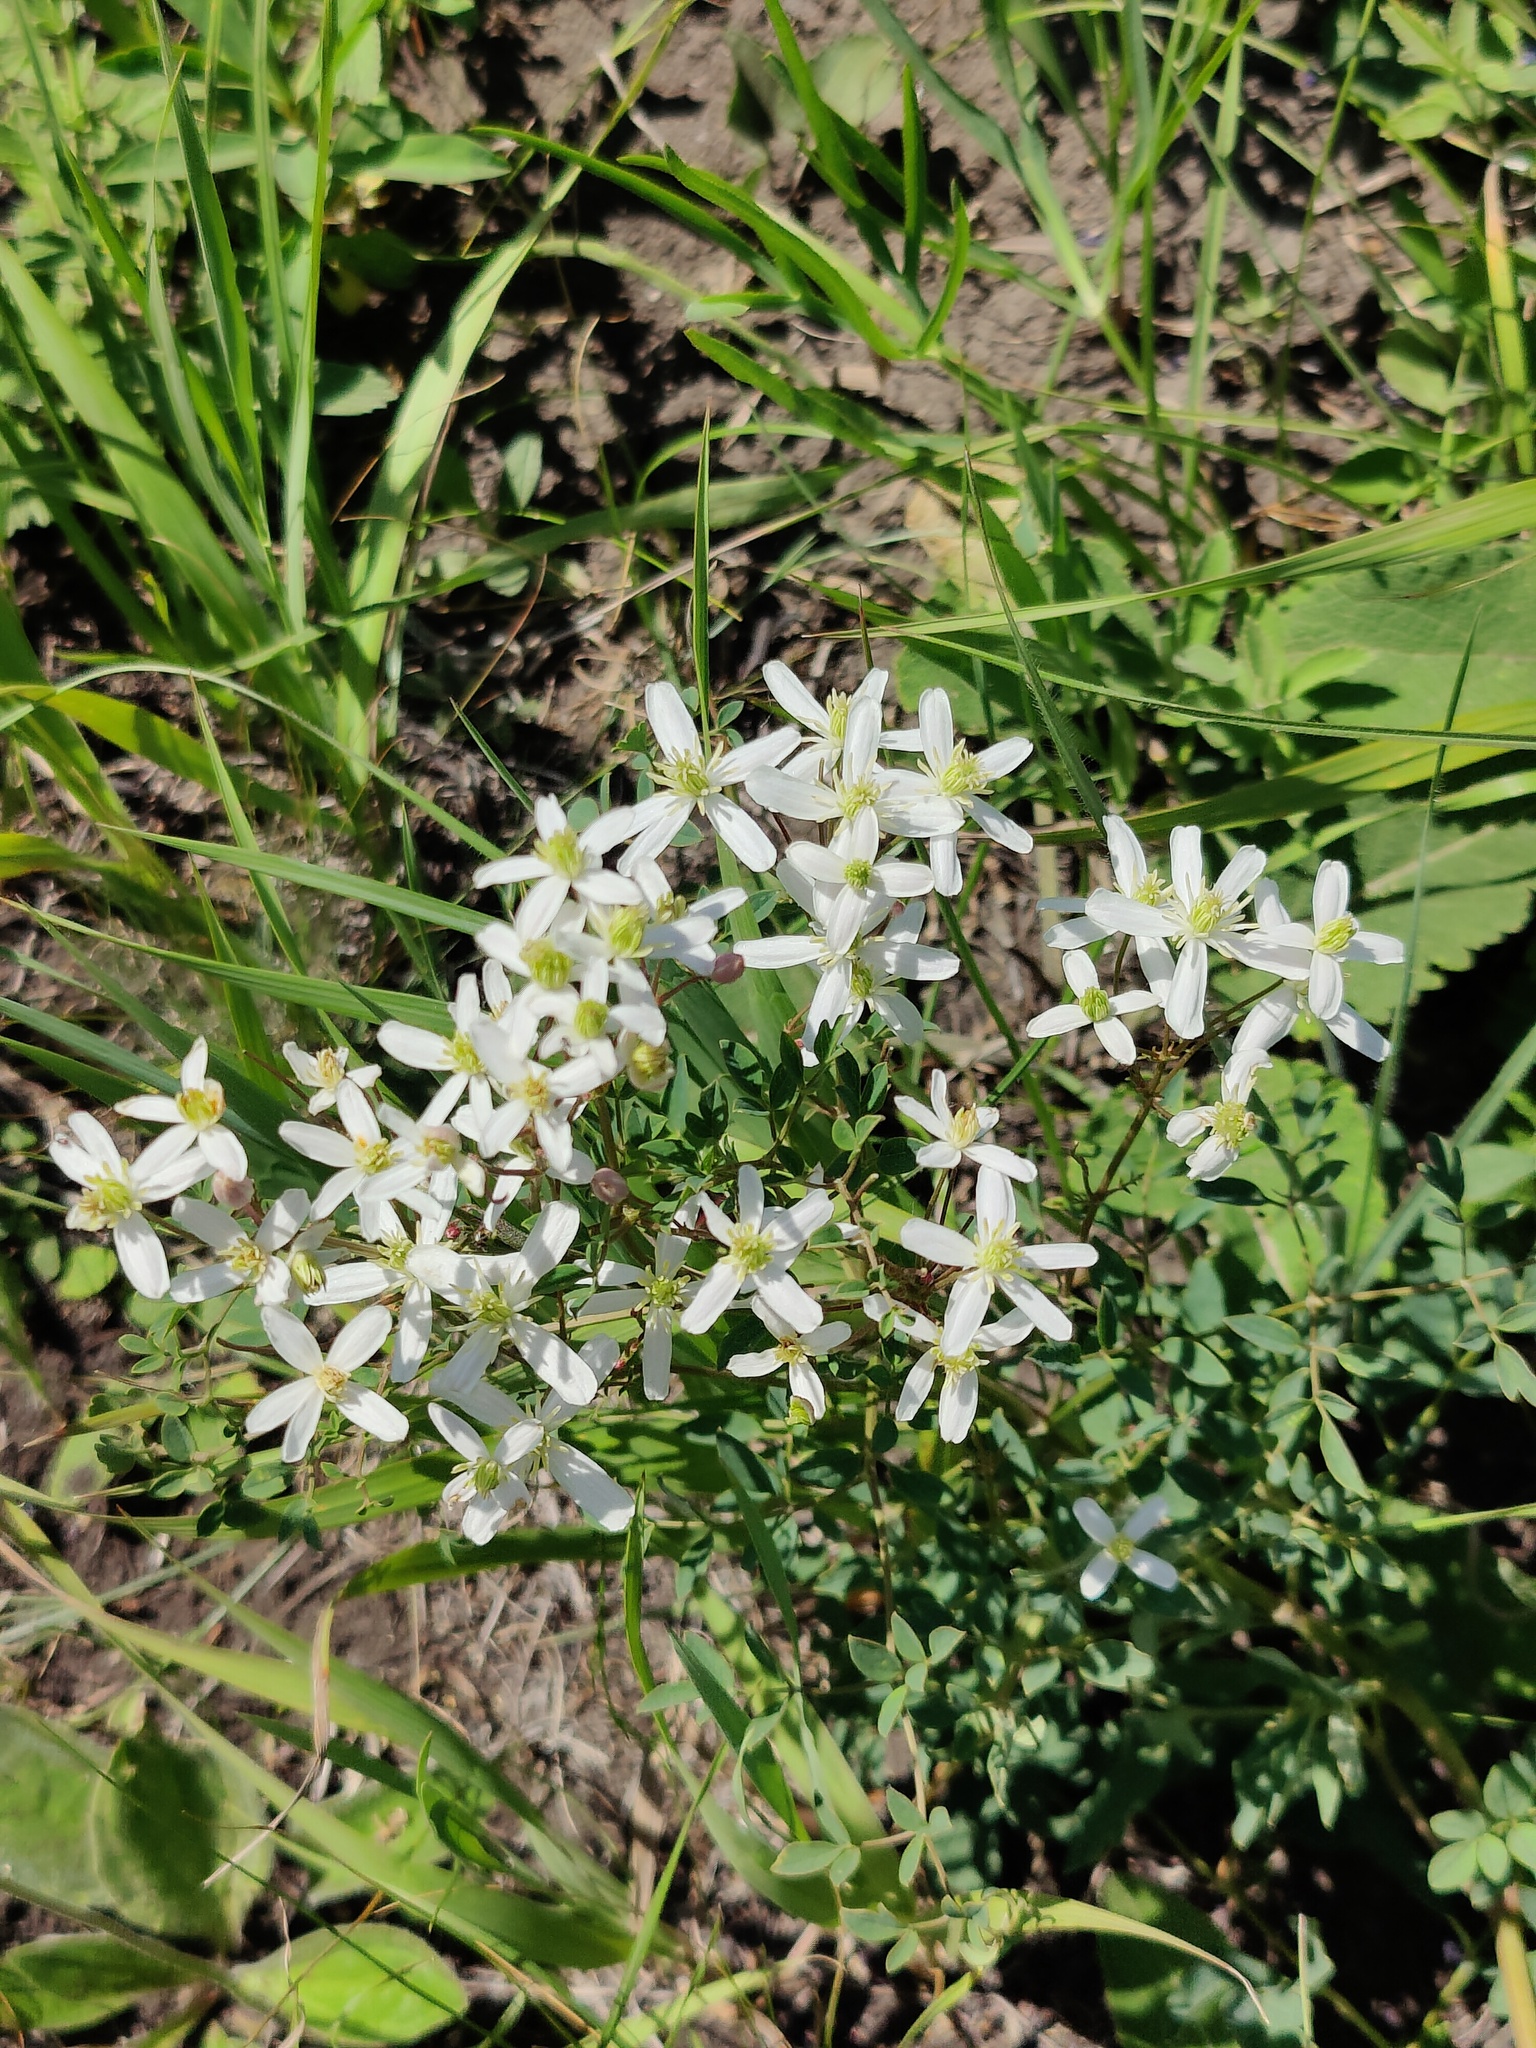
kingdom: Plantae
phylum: Tracheophyta
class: Magnoliopsida
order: Ranunculales
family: Ranunculaceae
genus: Clematis
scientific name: Clematis lathyrifolia
